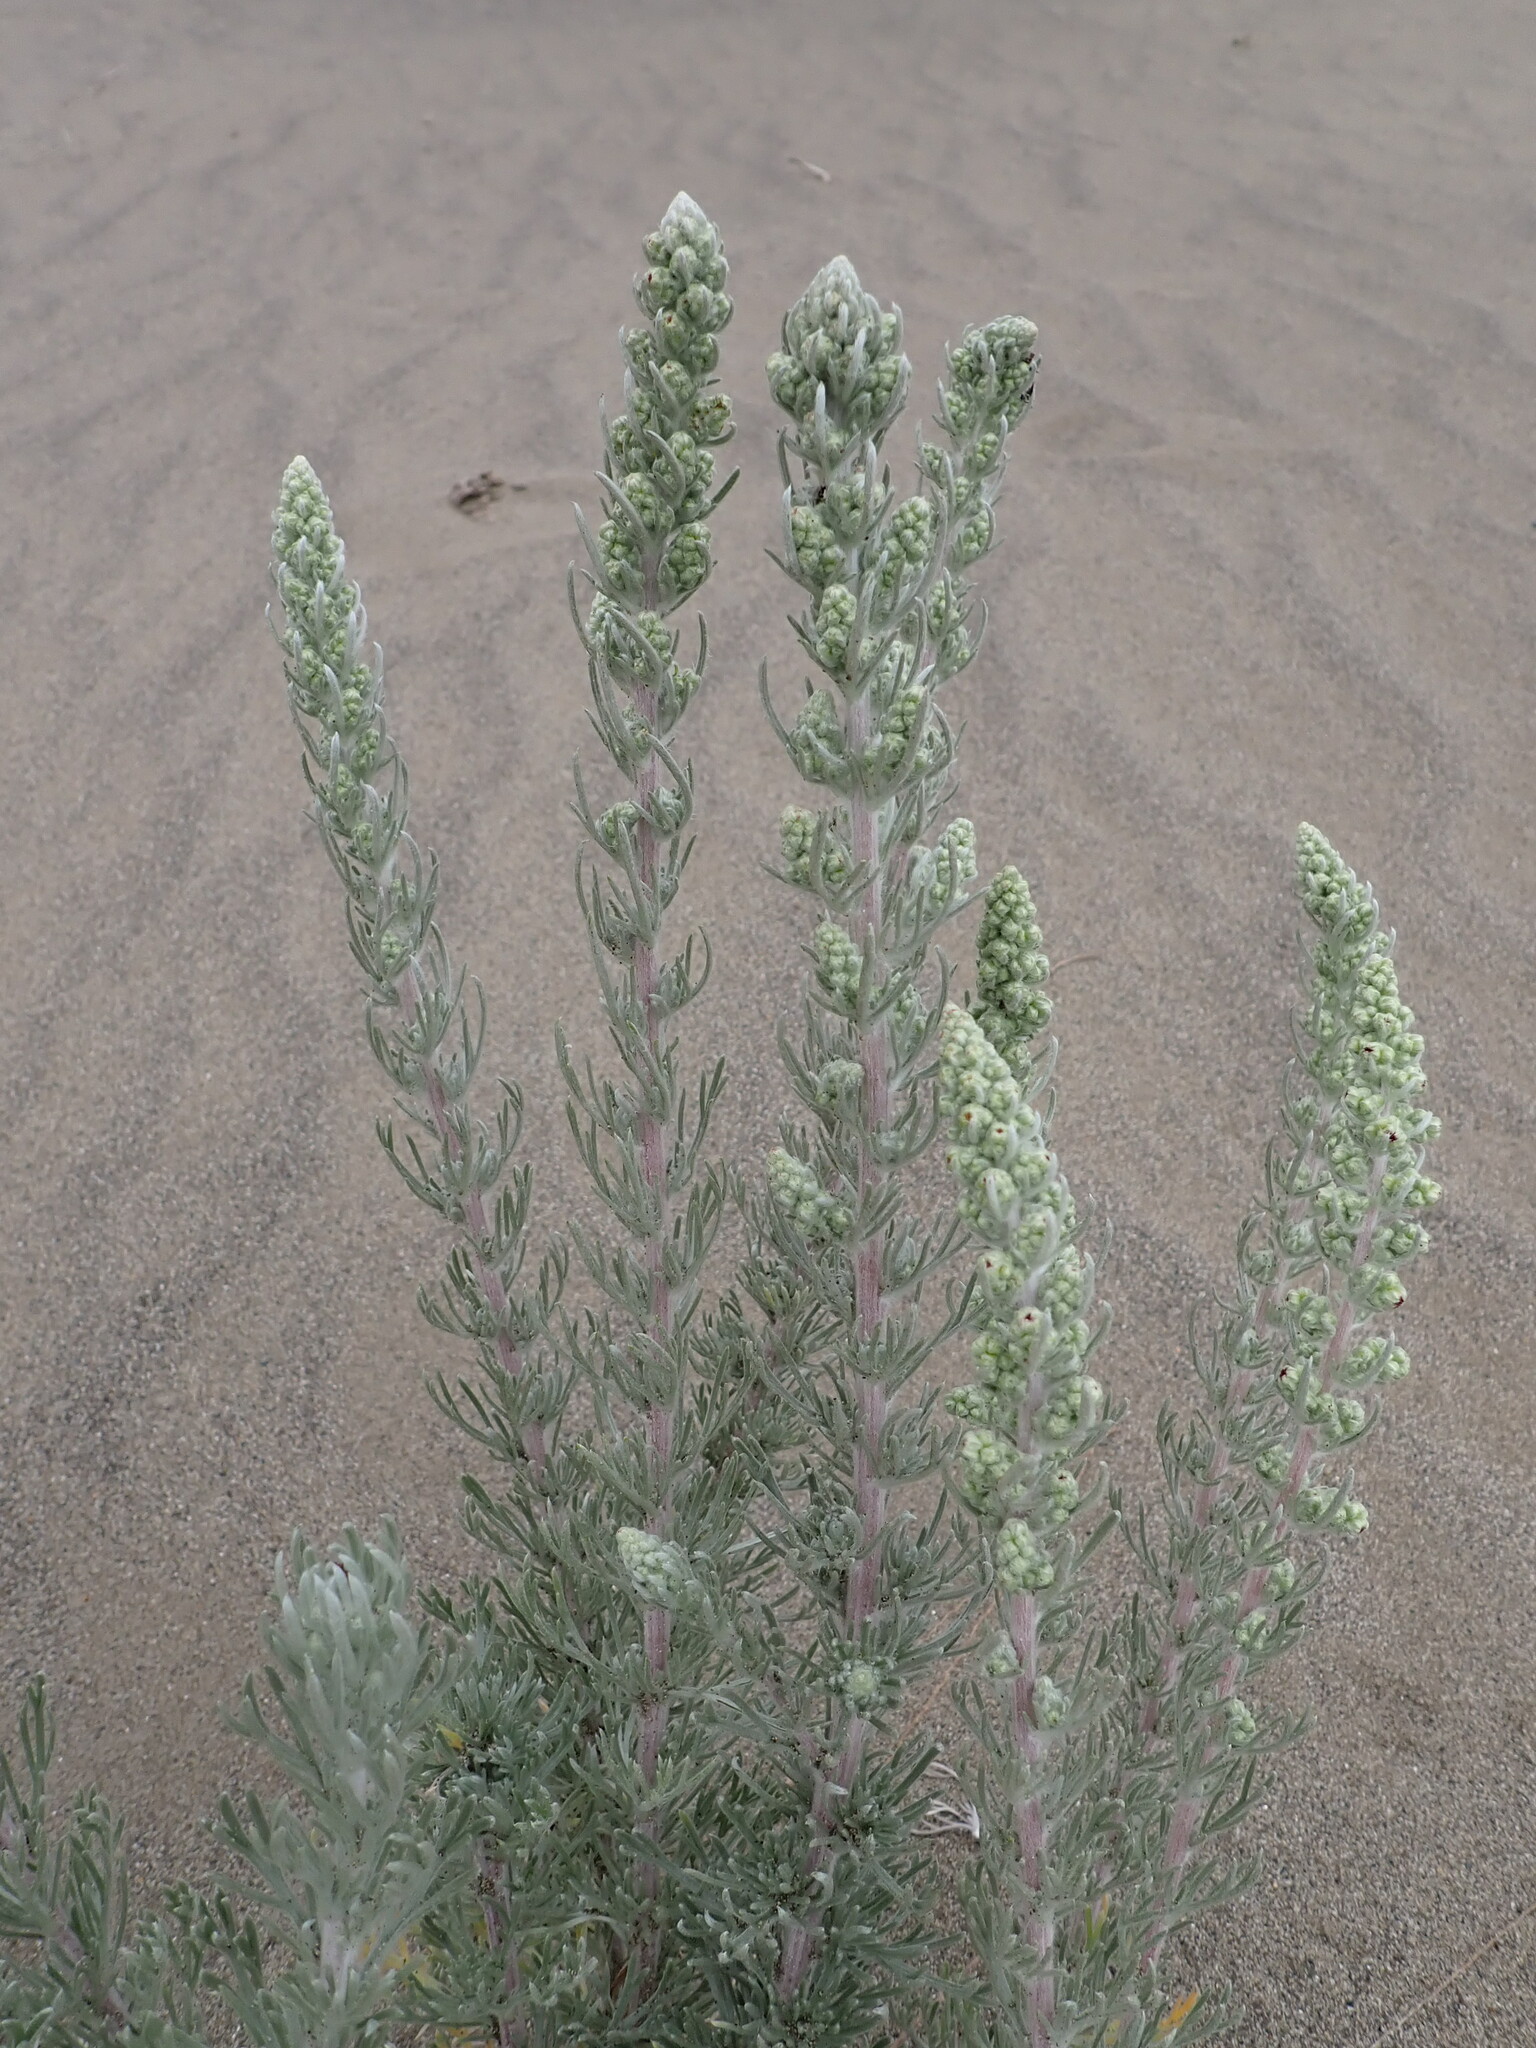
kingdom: Plantae
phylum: Tracheophyta
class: Magnoliopsida
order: Asterales
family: Asteraceae
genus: Artemisia
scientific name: Artemisia pycnocephala
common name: Coastal sagewort
